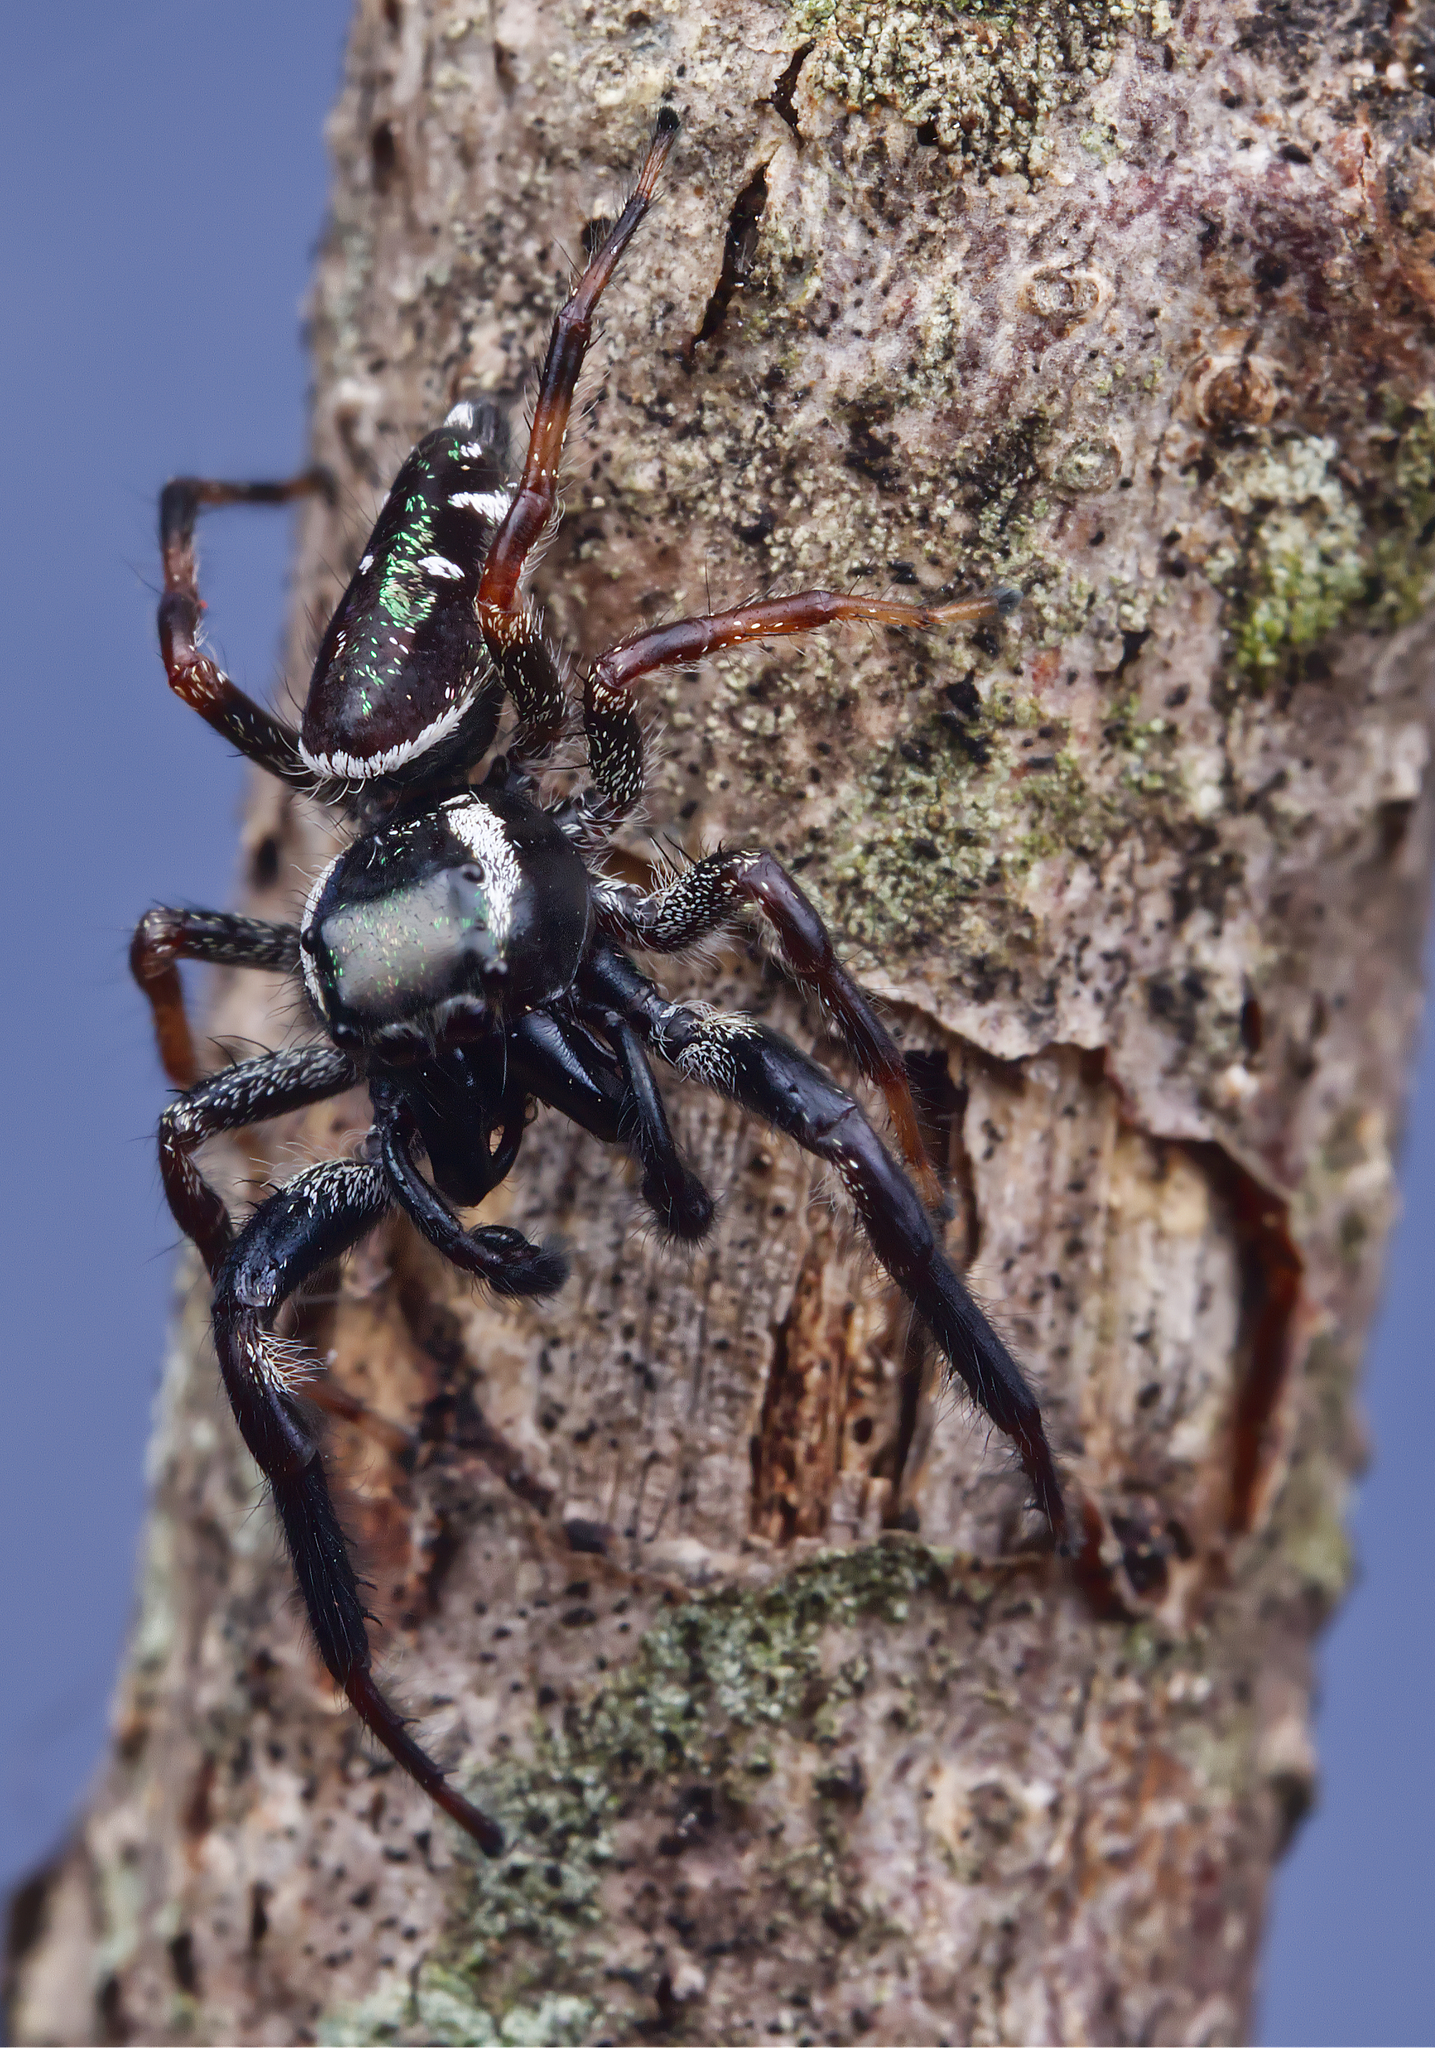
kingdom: Animalia
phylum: Arthropoda
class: Arachnida
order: Araneae
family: Salticidae
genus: Paraphidippus
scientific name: Paraphidippus aurantius
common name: Jumping spiders
